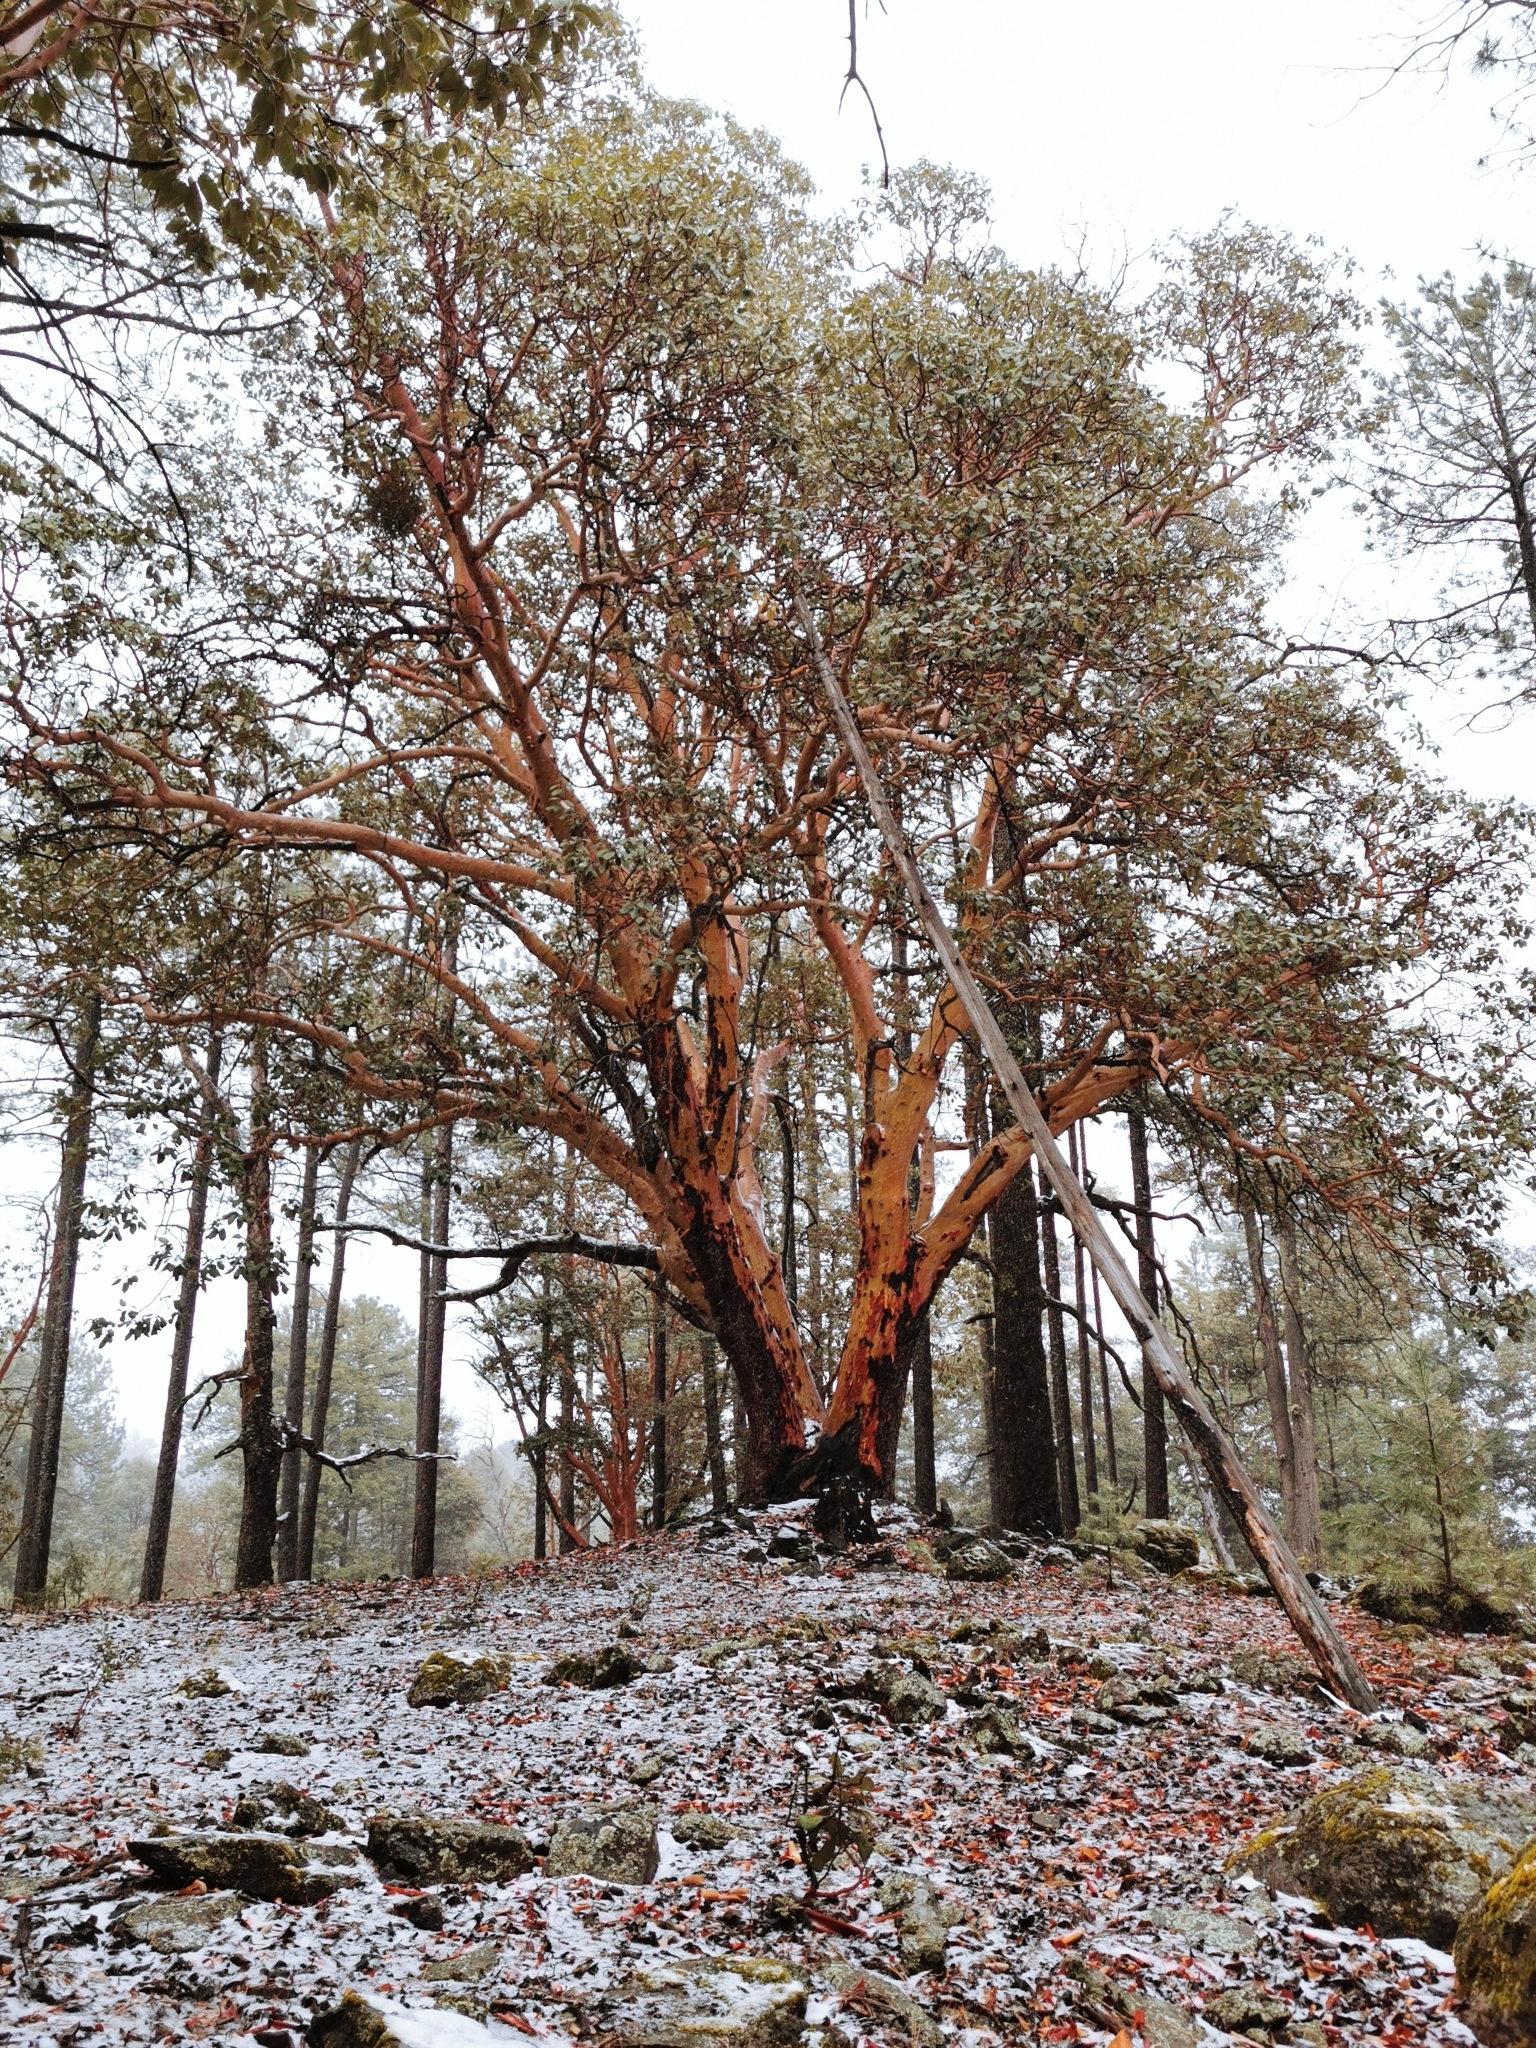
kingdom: Plantae
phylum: Tracheophyta
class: Magnoliopsida
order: Ericales
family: Ericaceae
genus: Arbutus
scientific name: Arbutus bicolor
